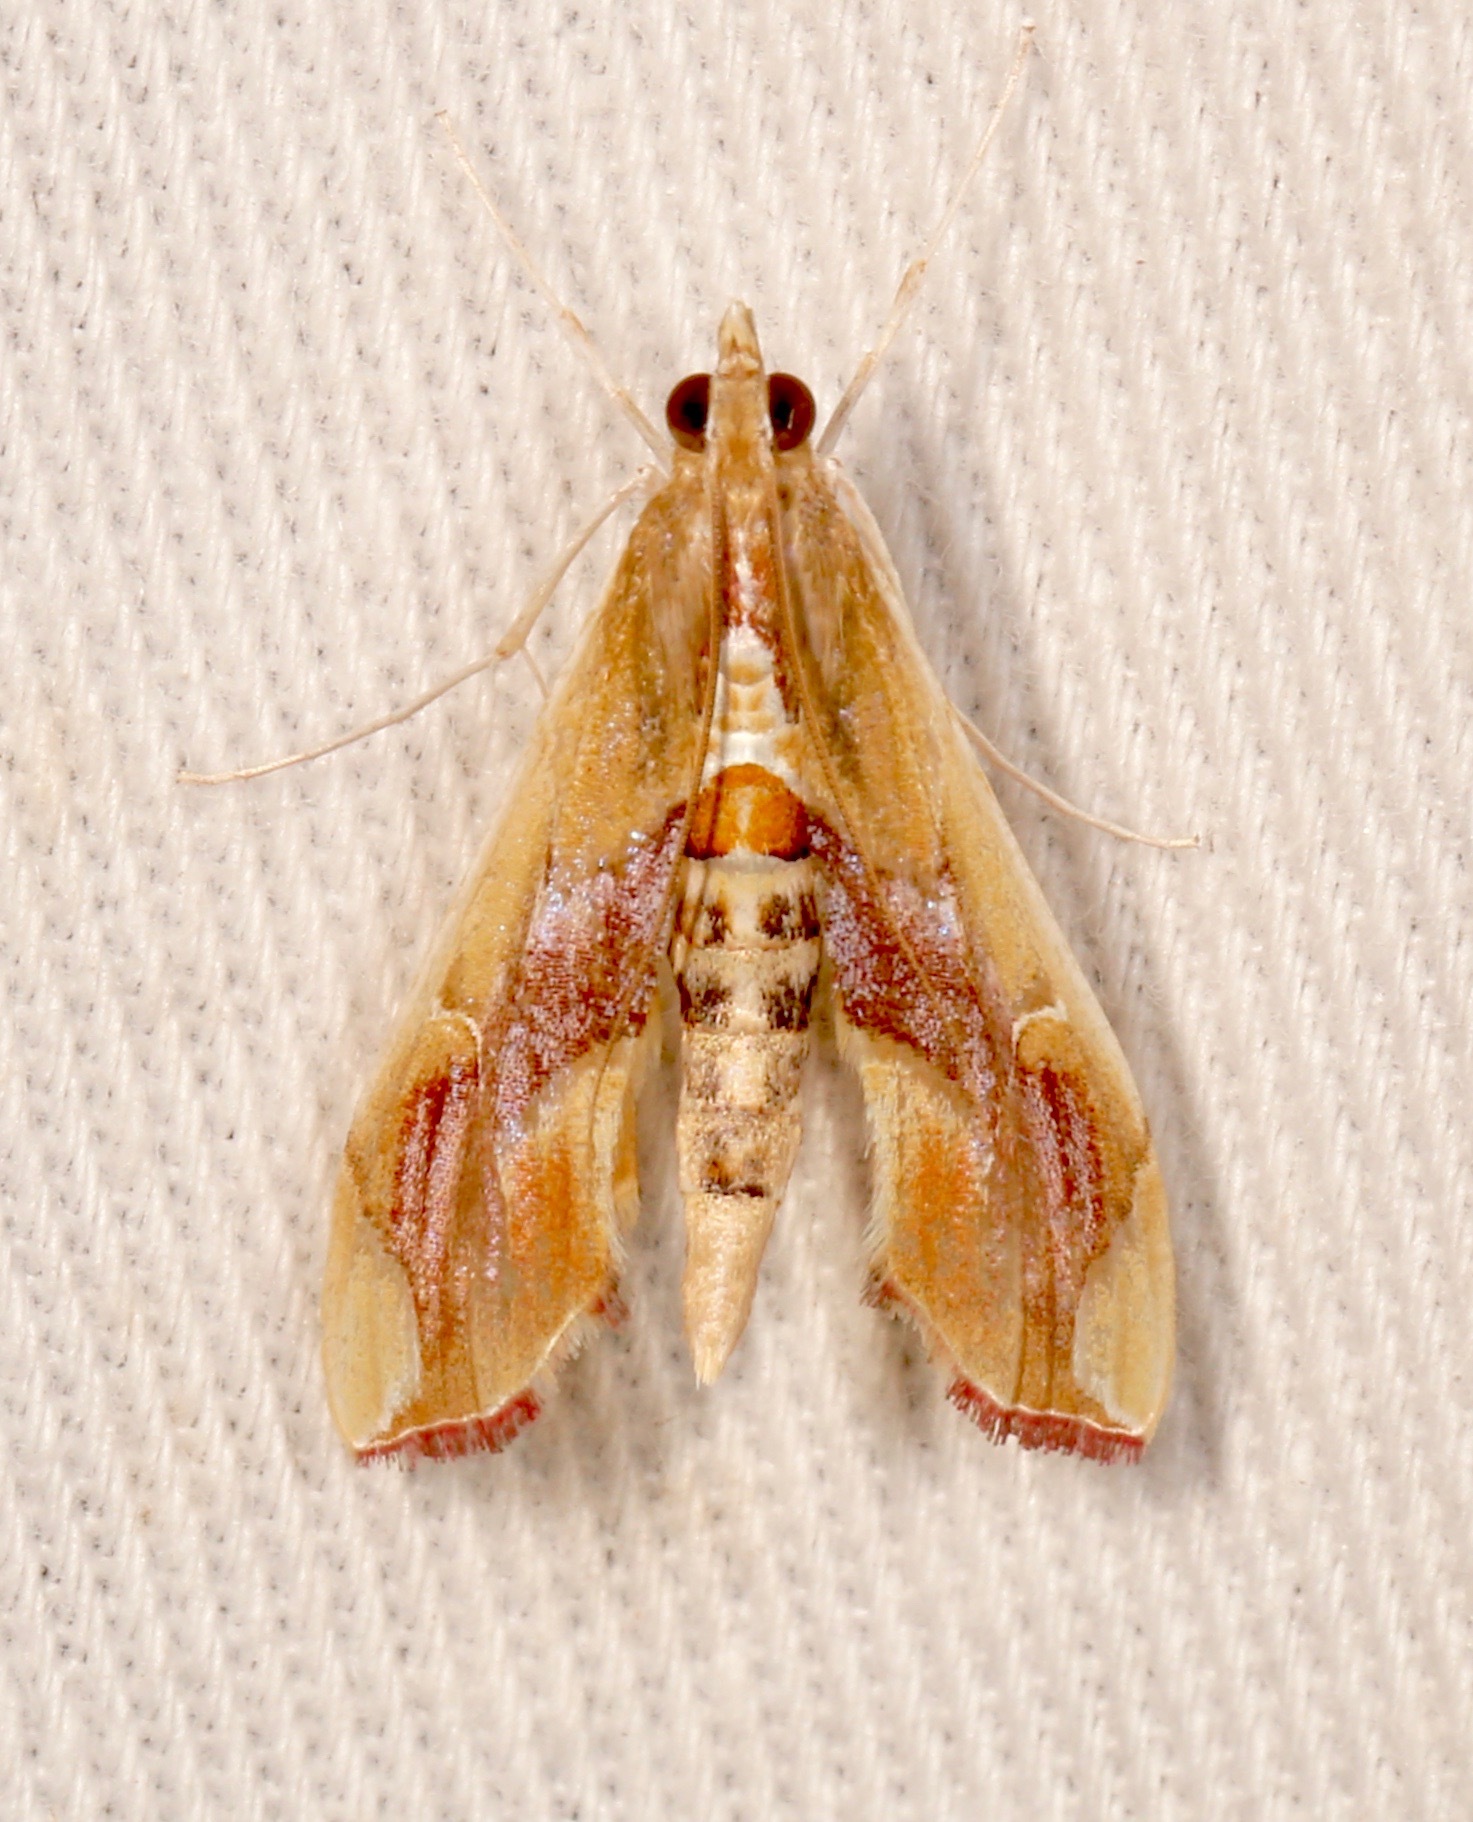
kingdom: Animalia
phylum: Arthropoda
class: Insecta
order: Lepidoptera
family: Crambidae
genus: Agathodes
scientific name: Agathodes monstralis
